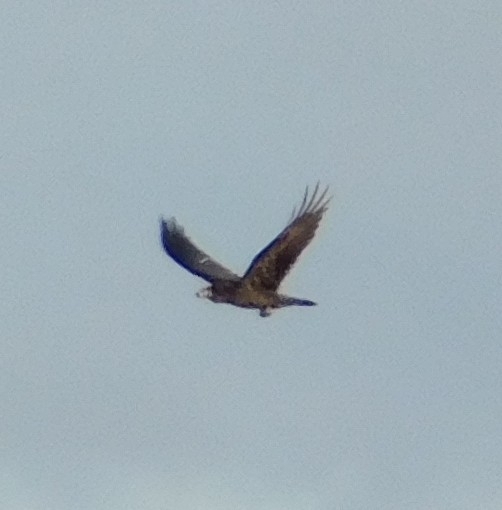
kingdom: Animalia
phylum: Chordata
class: Aves
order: Passeriformes
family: Corvidae
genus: Corvus
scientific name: Corvus corax
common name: Common raven
